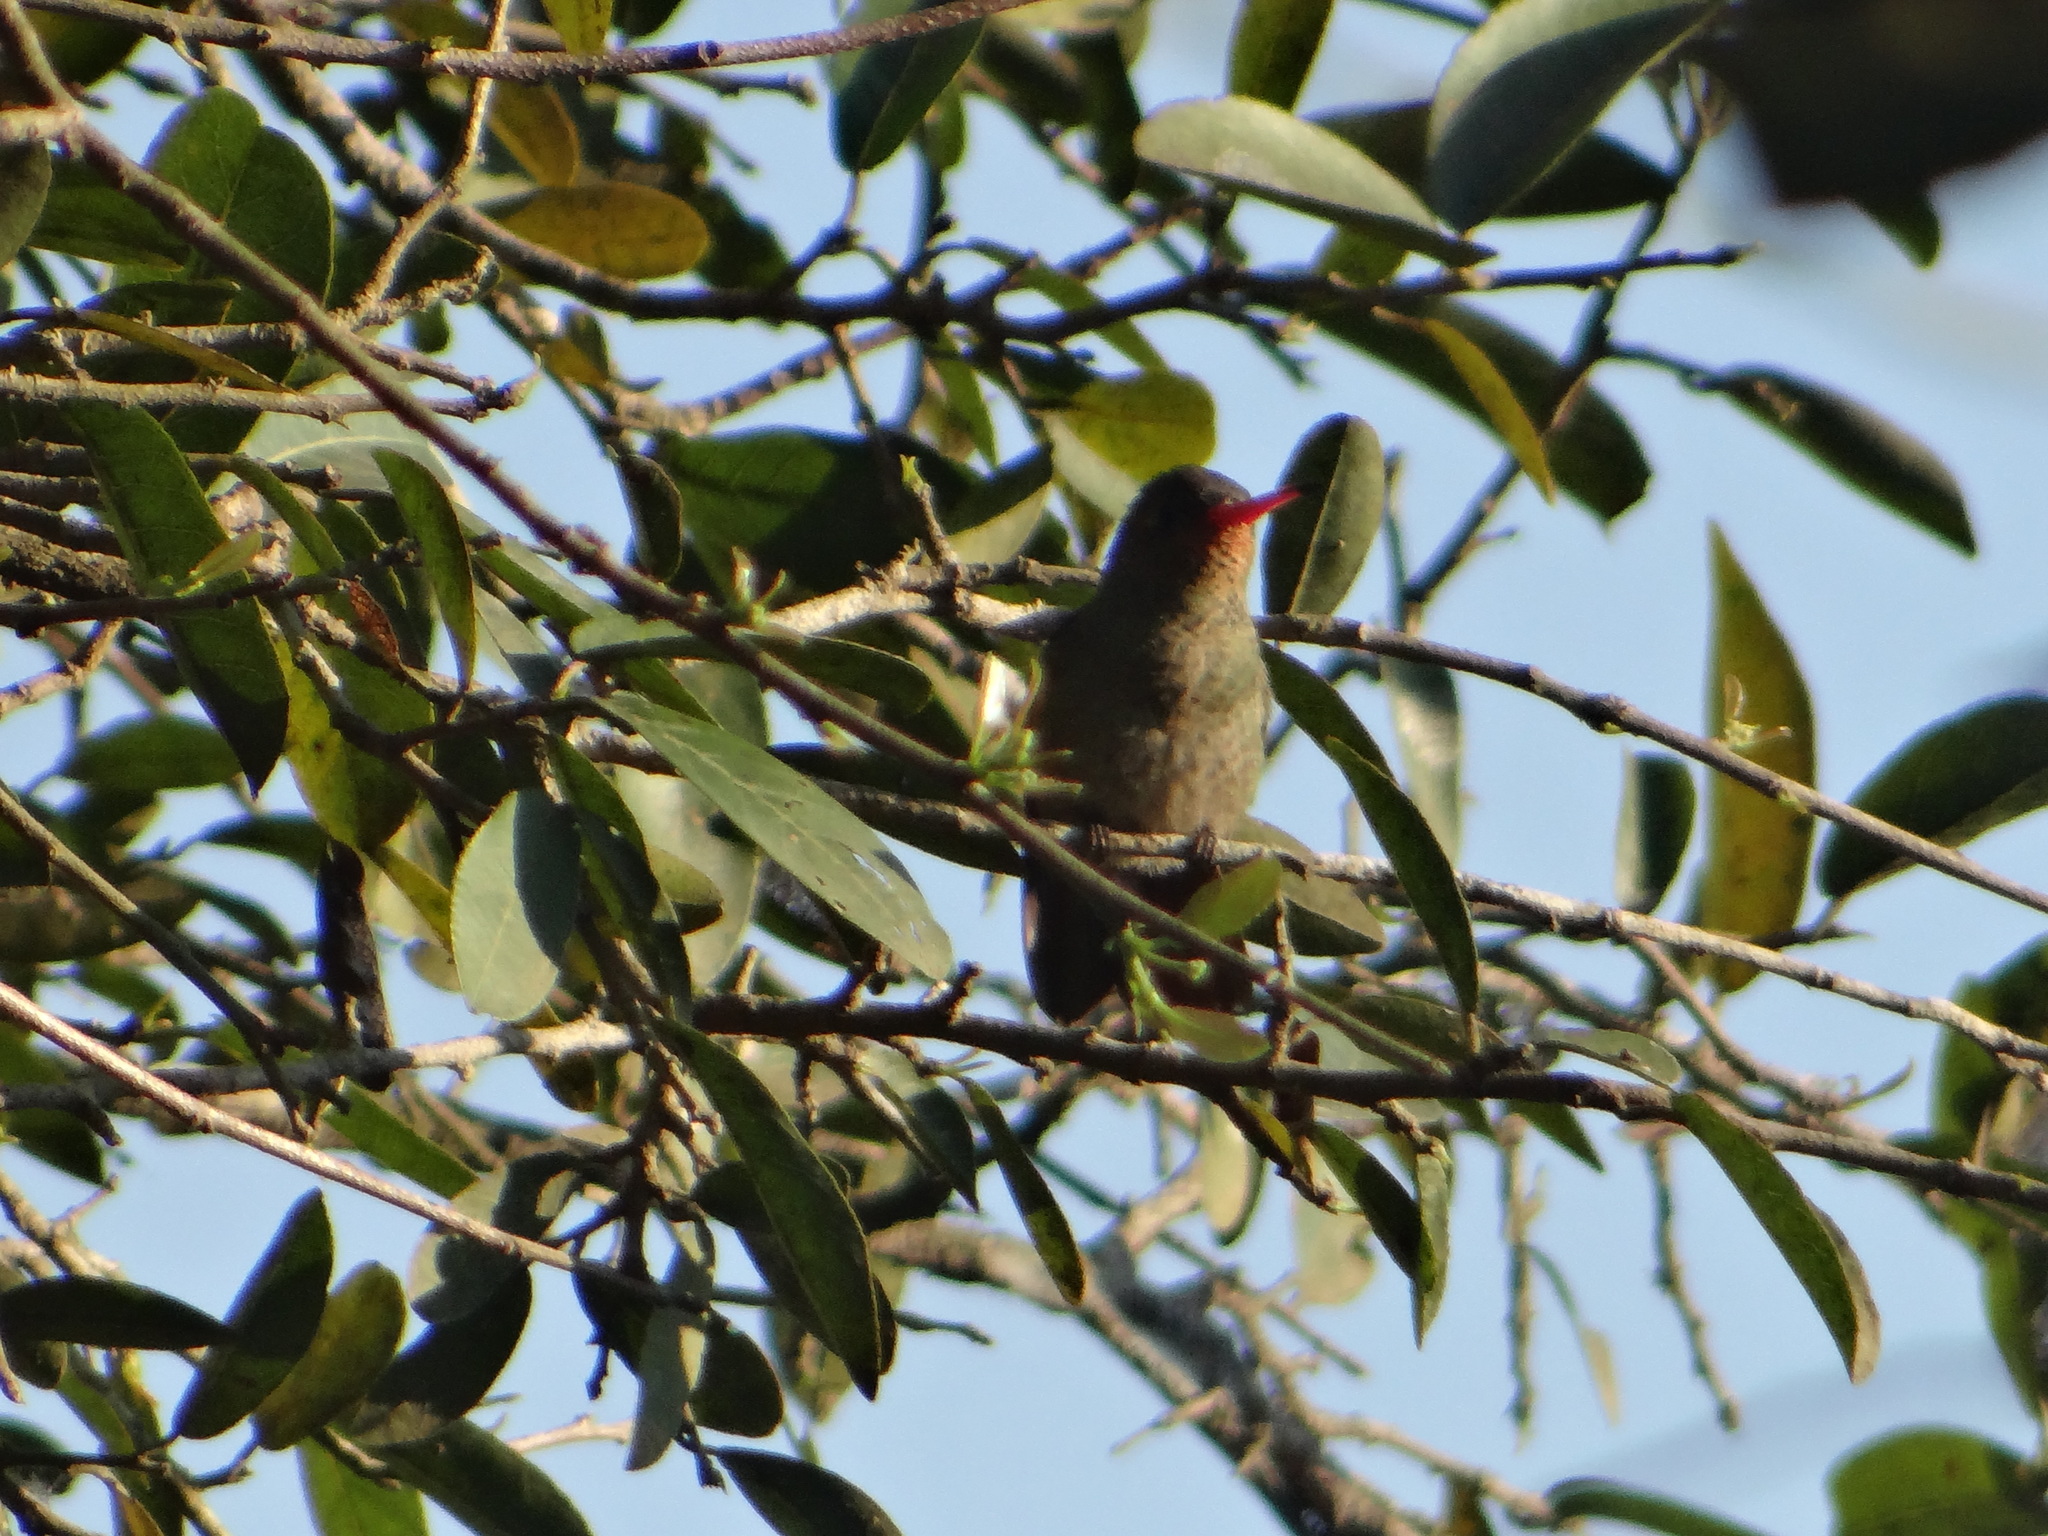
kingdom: Animalia
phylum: Chordata
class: Aves
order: Apodiformes
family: Trochilidae
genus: Hylocharis
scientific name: Hylocharis sapphirina
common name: Rufous-throated sapphire
